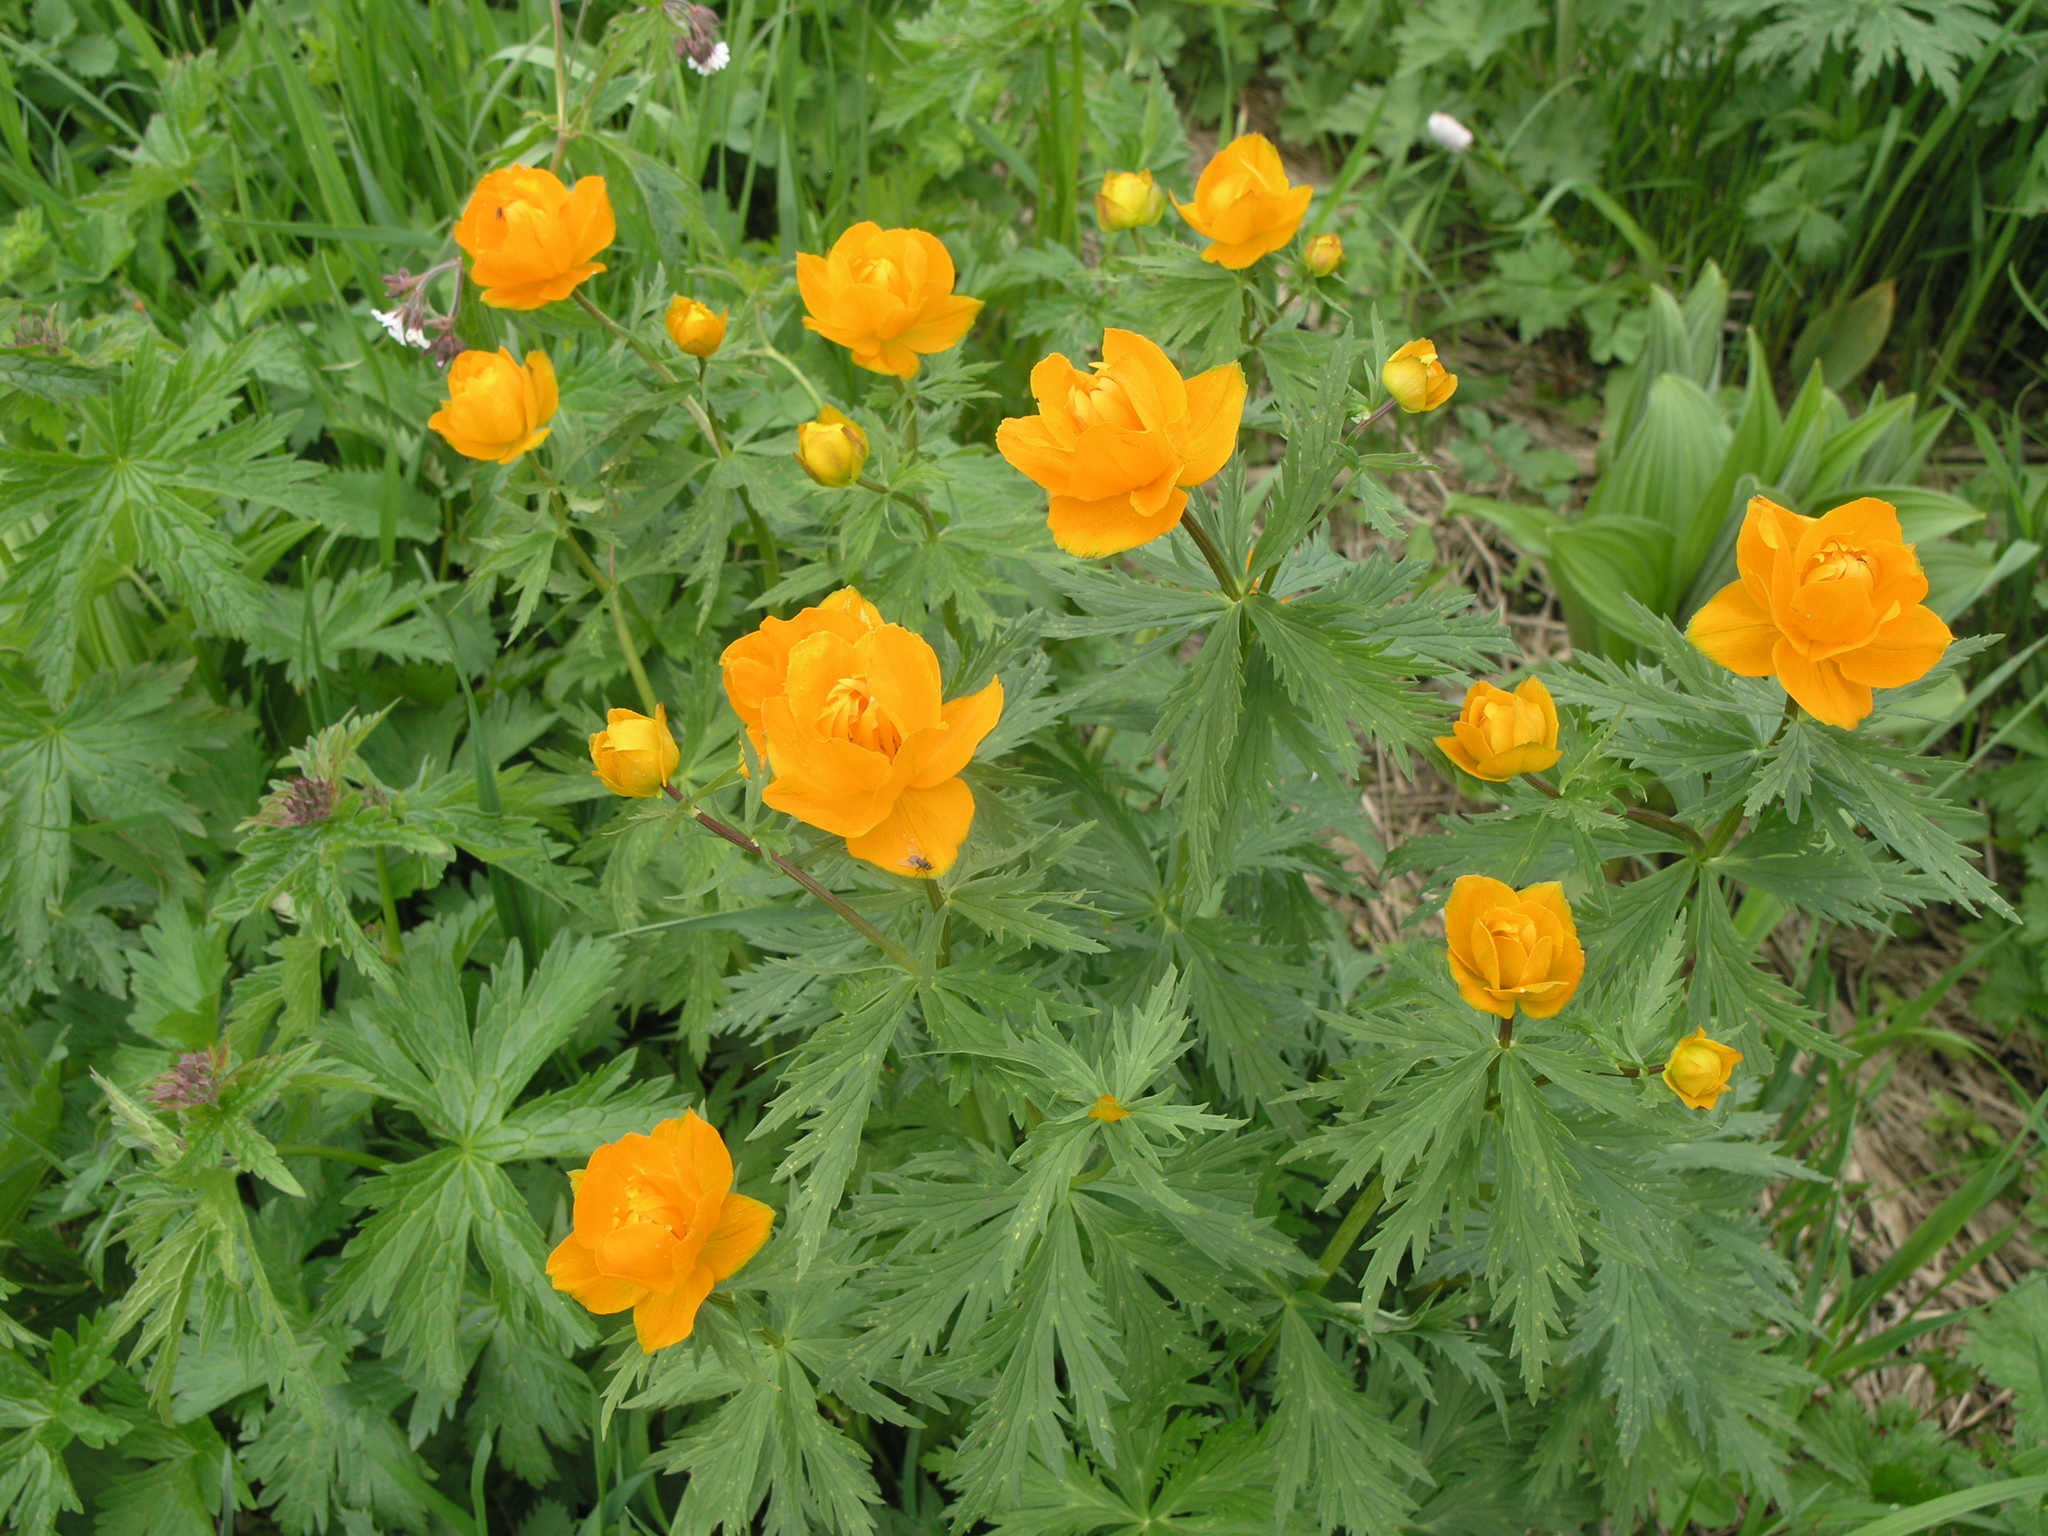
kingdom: Plantae
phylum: Tracheophyta
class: Magnoliopsida
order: Ranunculales
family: Ranunculaceae
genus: Trollius
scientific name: Trollius asiaticus
